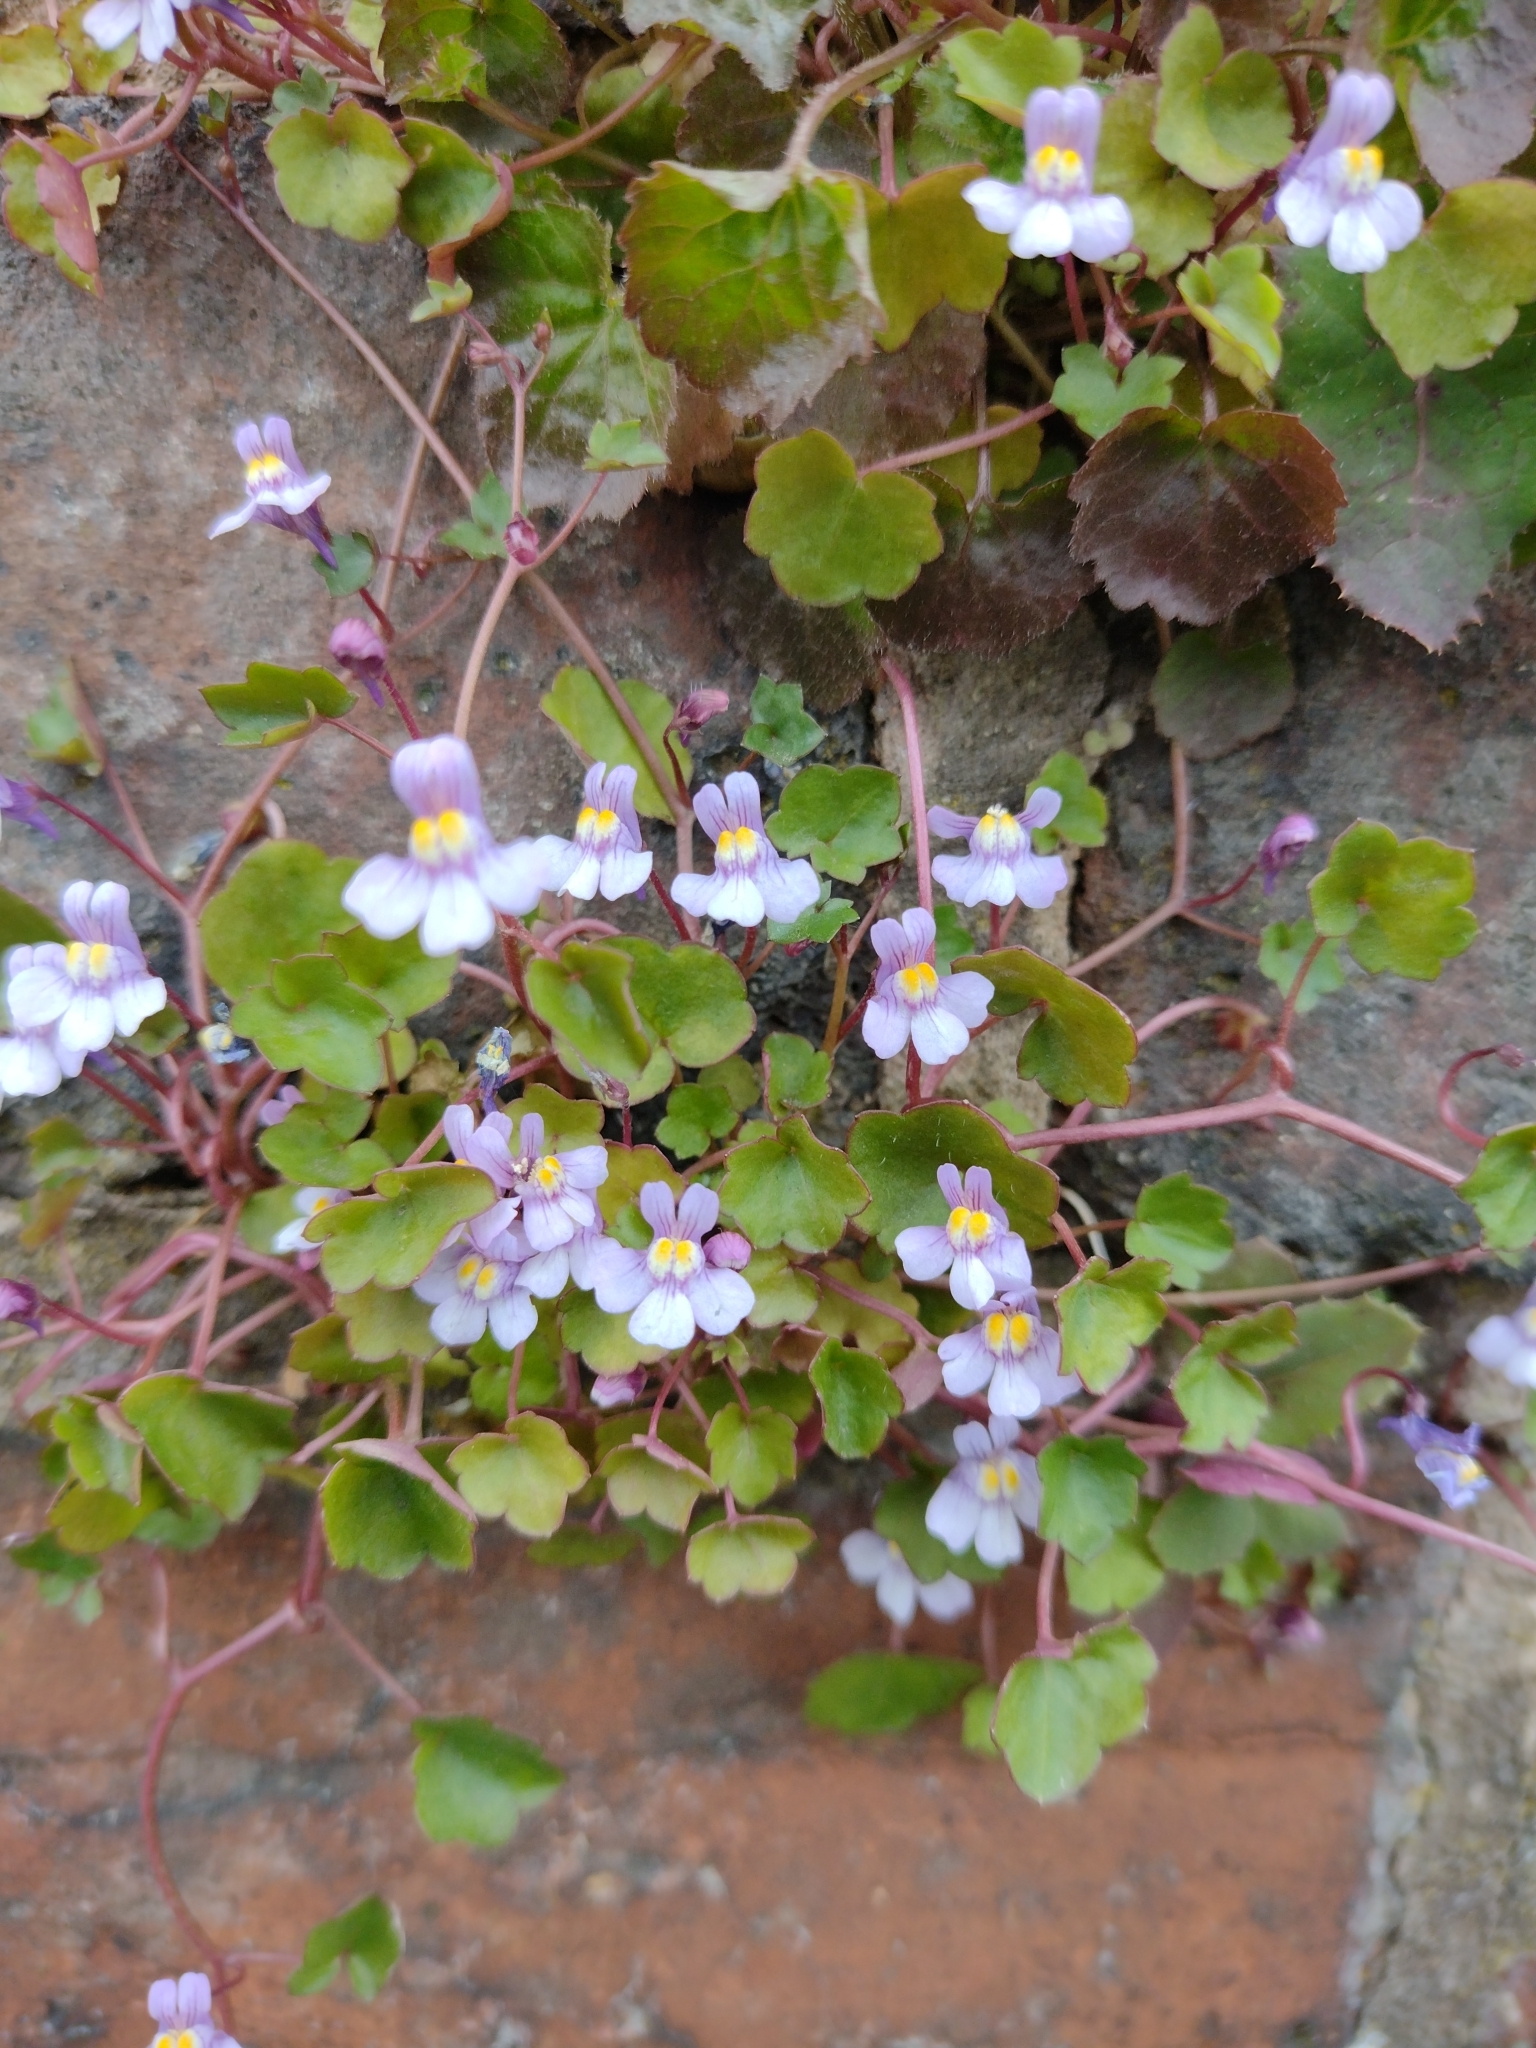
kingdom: Plantae
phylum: Tracheophyta
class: Magnoliopsida
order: Lamiales
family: Plantaginaceae
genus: Cymbalaria
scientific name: Cymbalaria muralis
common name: Ivy-leaved toadflax
